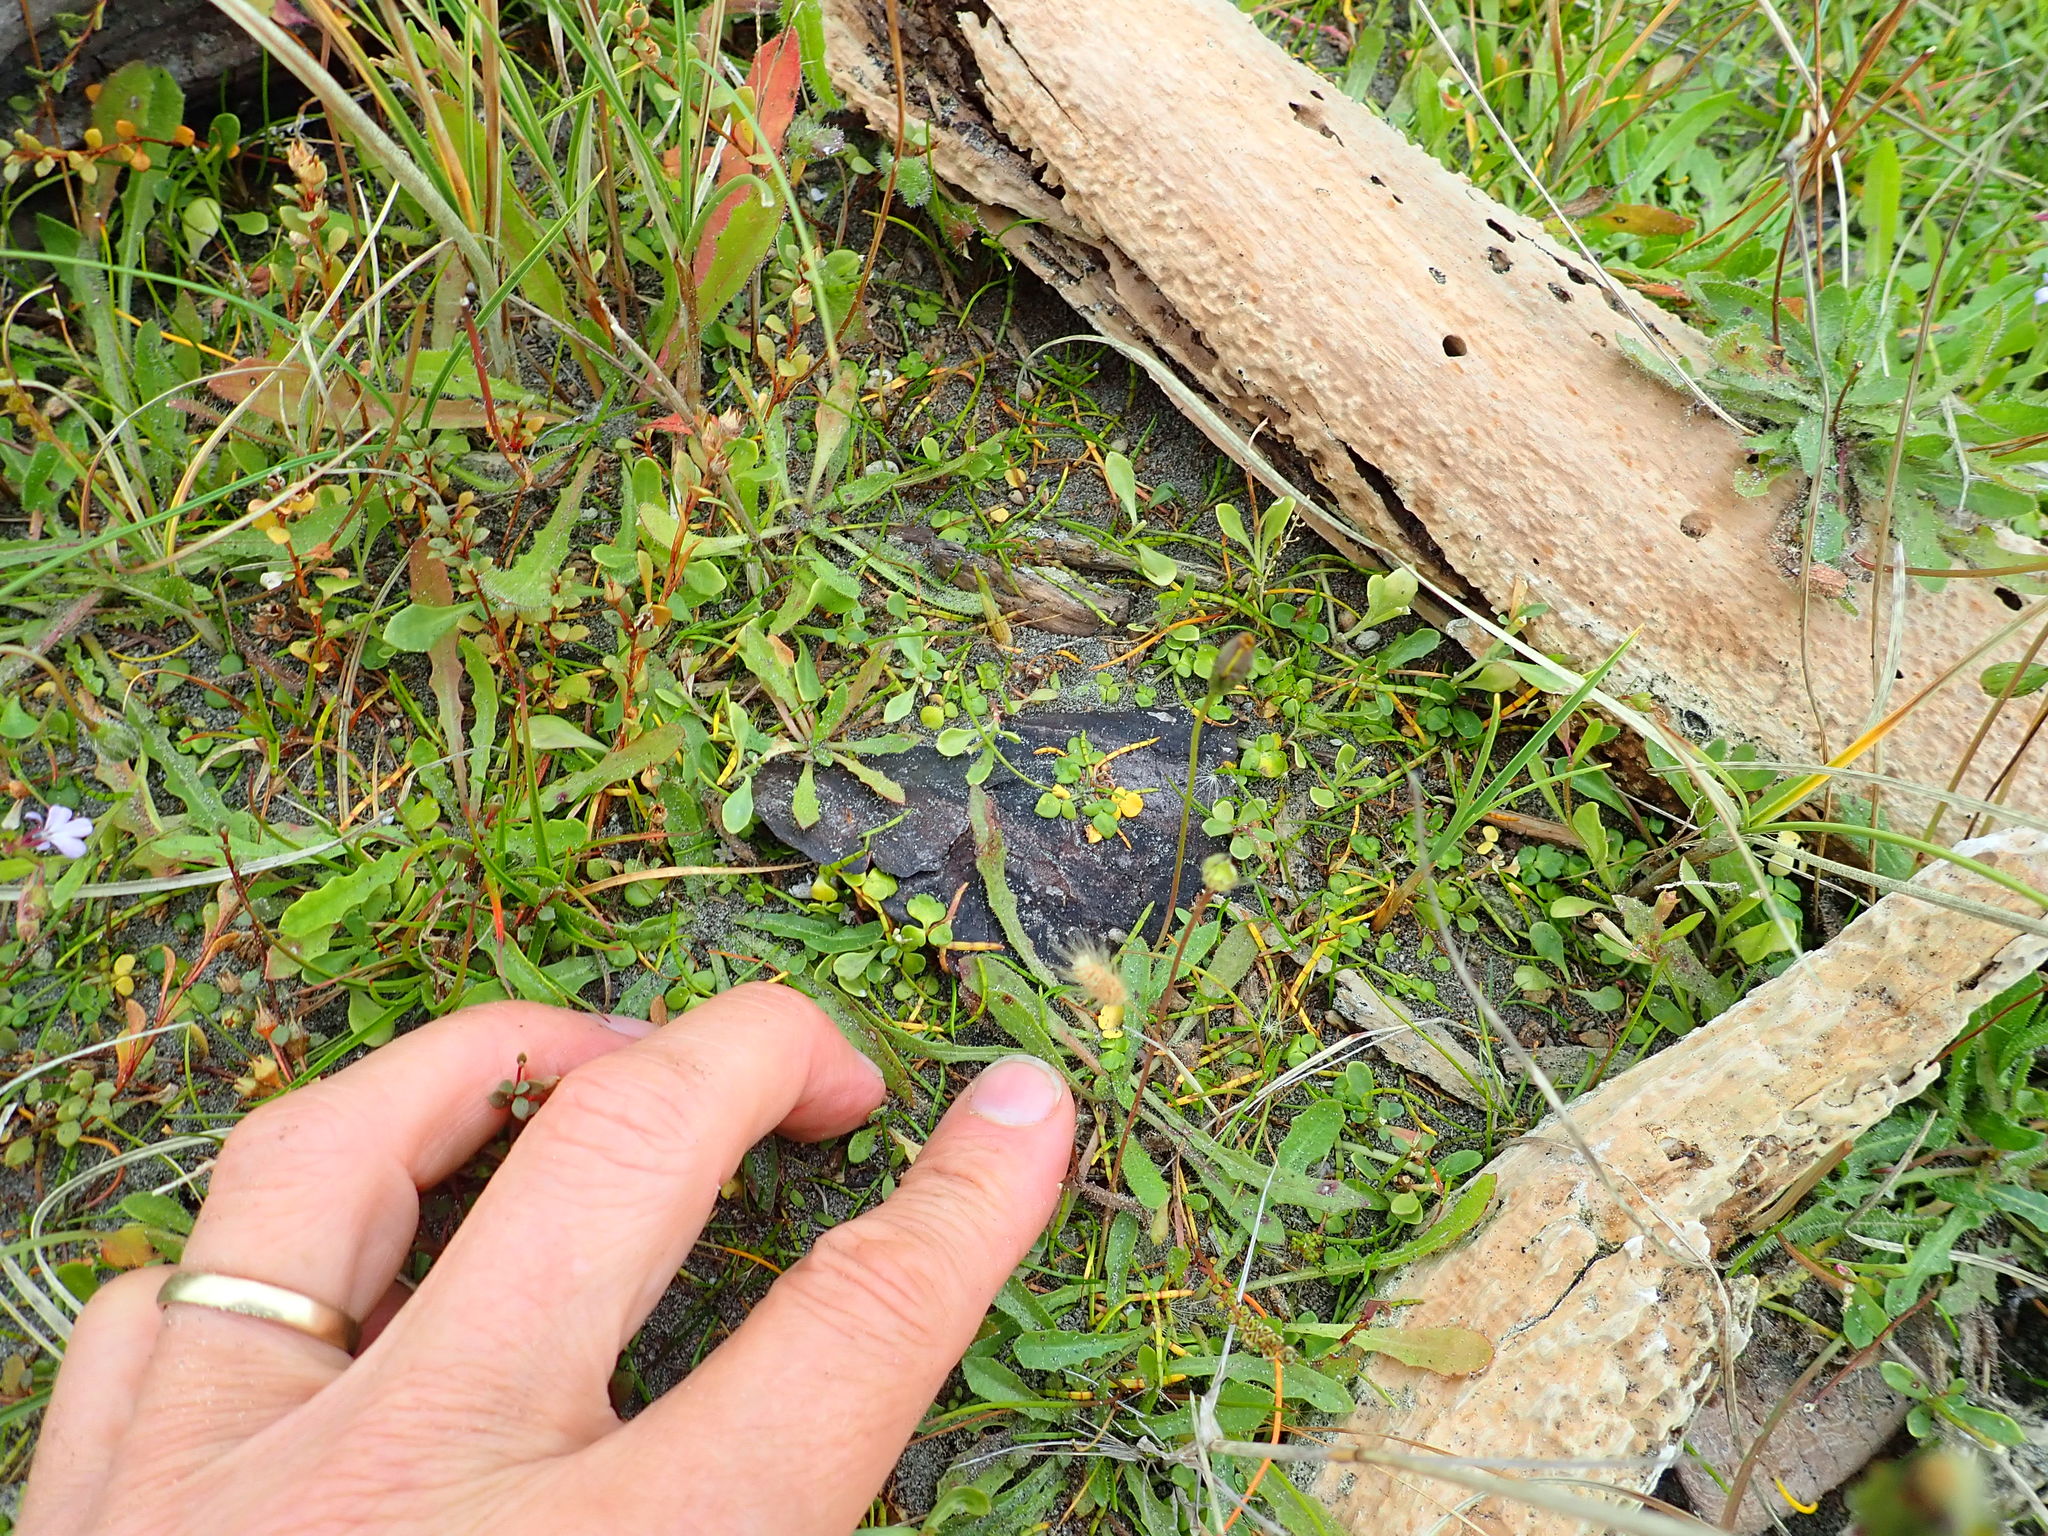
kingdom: Plantae
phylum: Tracheophyta
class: Magnoliopsida
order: Ranunculales
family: Ranunculaceae
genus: Ranunculus
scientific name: Ranunculus acaulis
